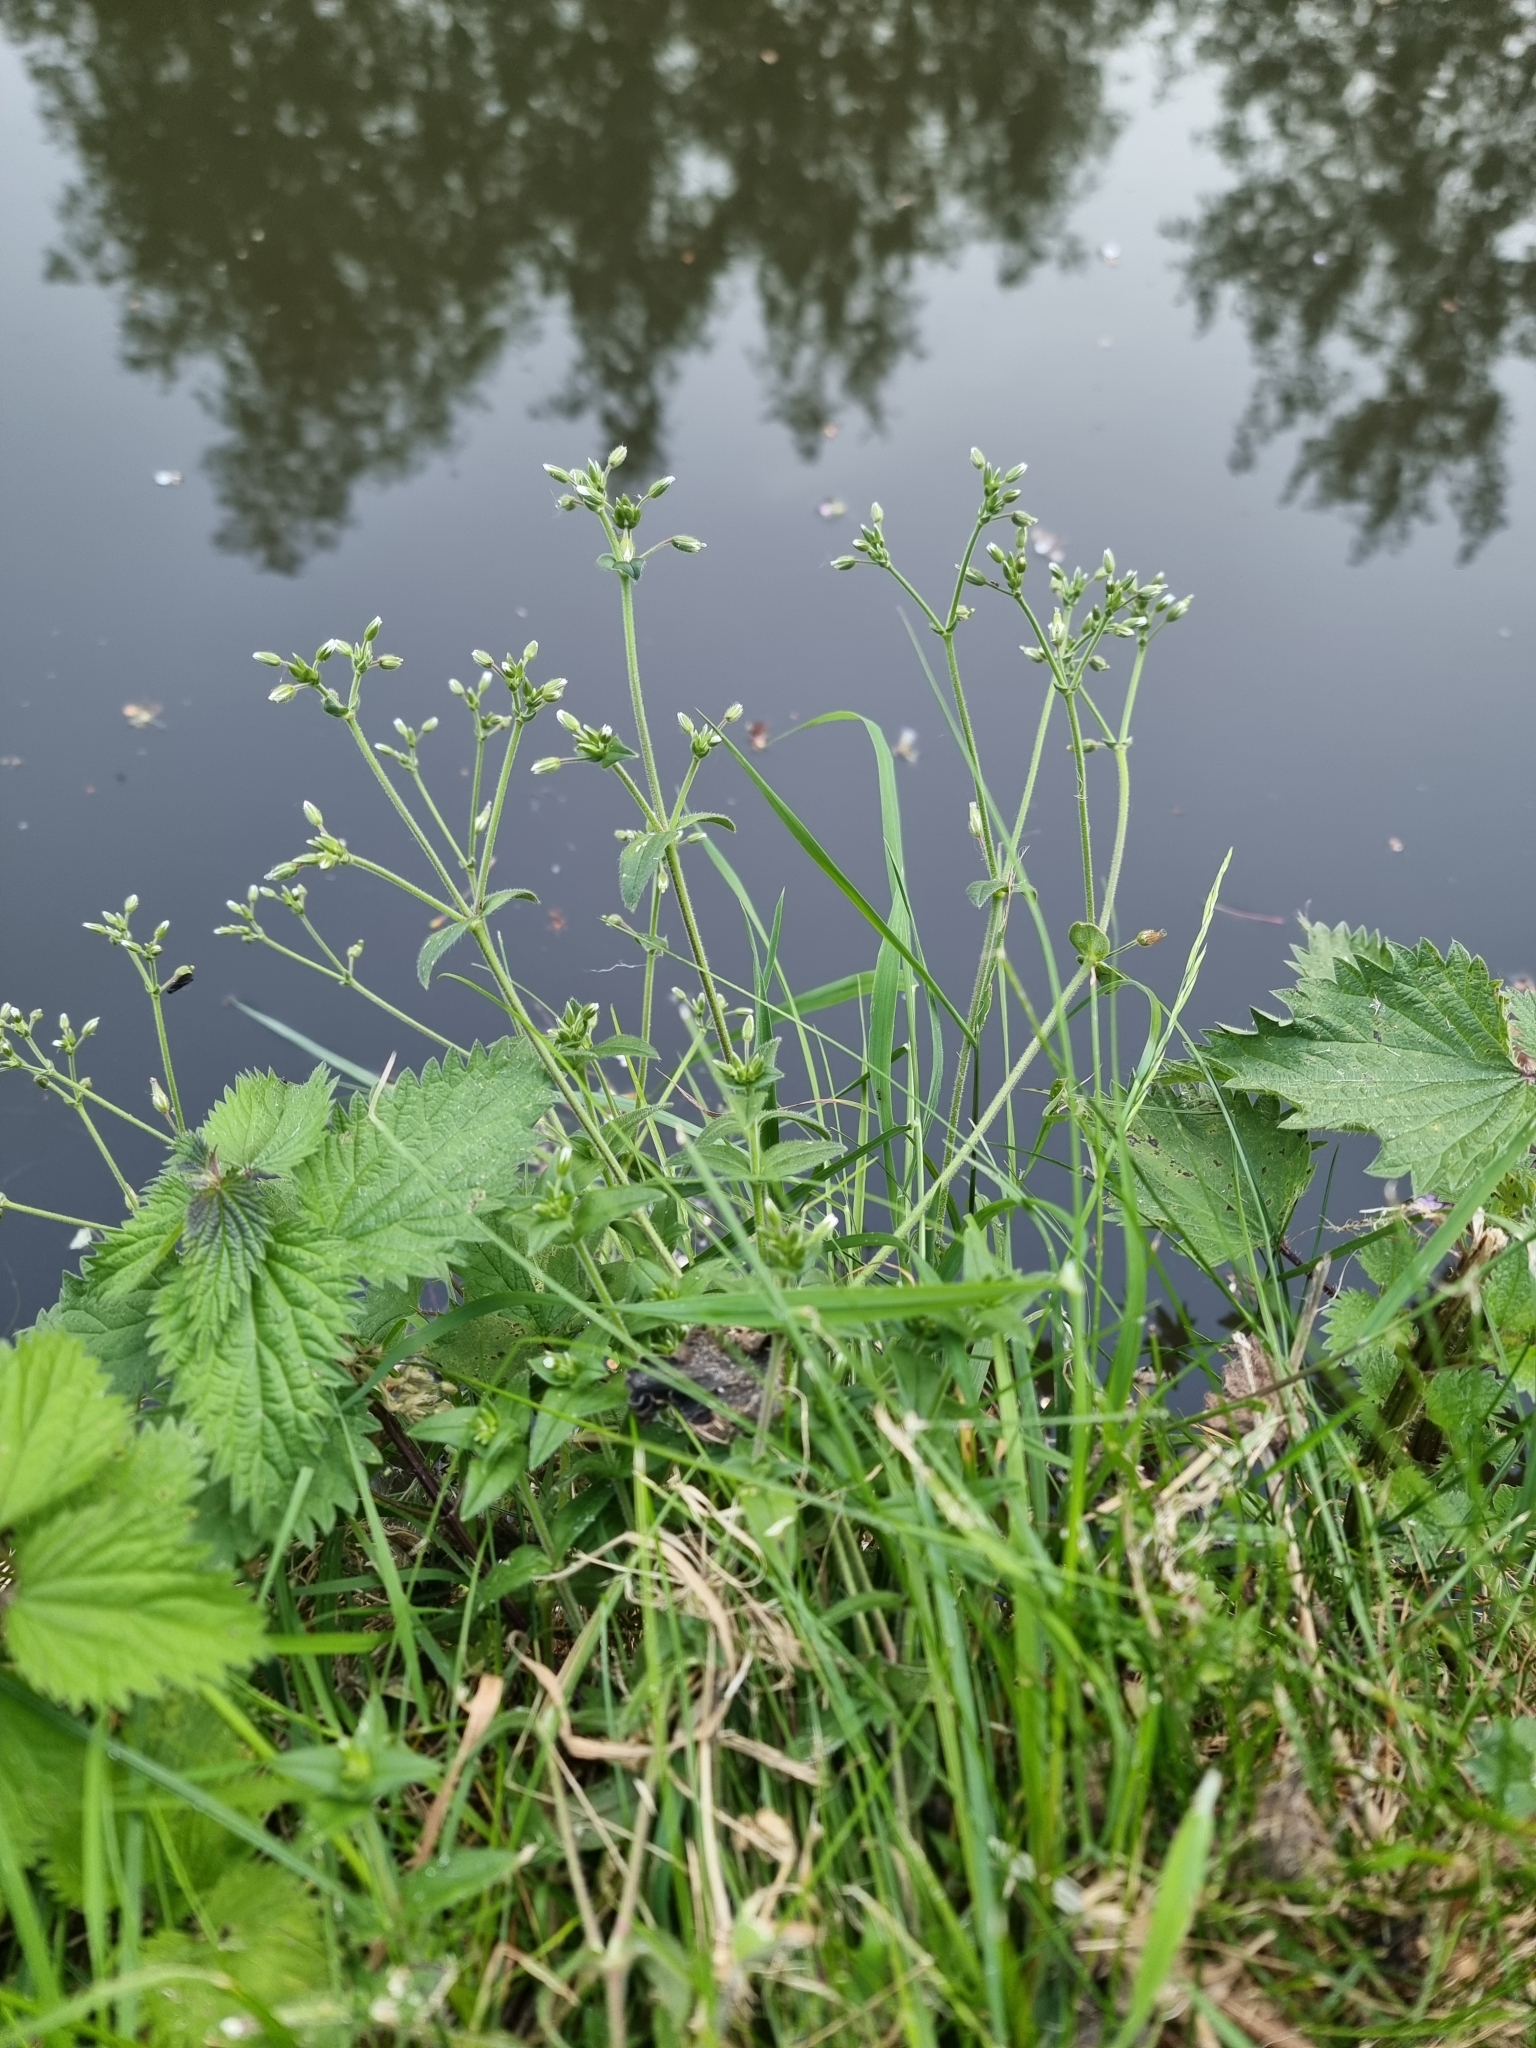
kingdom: Plantae
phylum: Tracheophyta
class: Magnoliopsida
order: Caryophyllales
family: Caryophyllaceae
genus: Cerastium
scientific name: Cerastium fontanum
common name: Common mouse-ear
